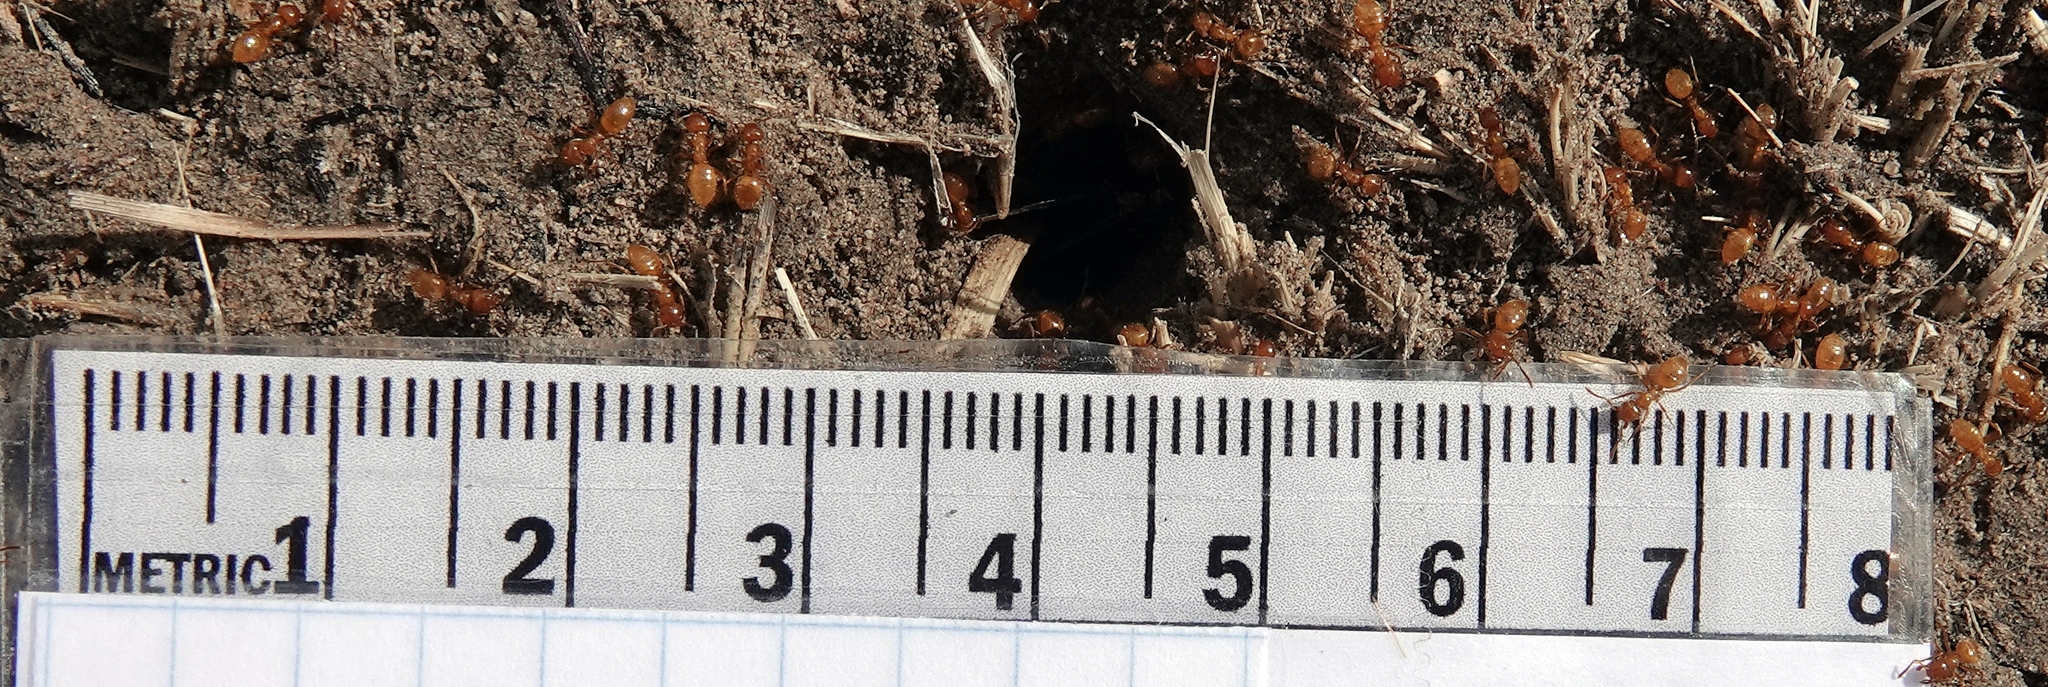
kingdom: Animalia
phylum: Arthropoda
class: Insecta
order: Hymenoptera
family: Formicidae
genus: Acanthomyops
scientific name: Acanthomyops latipes
